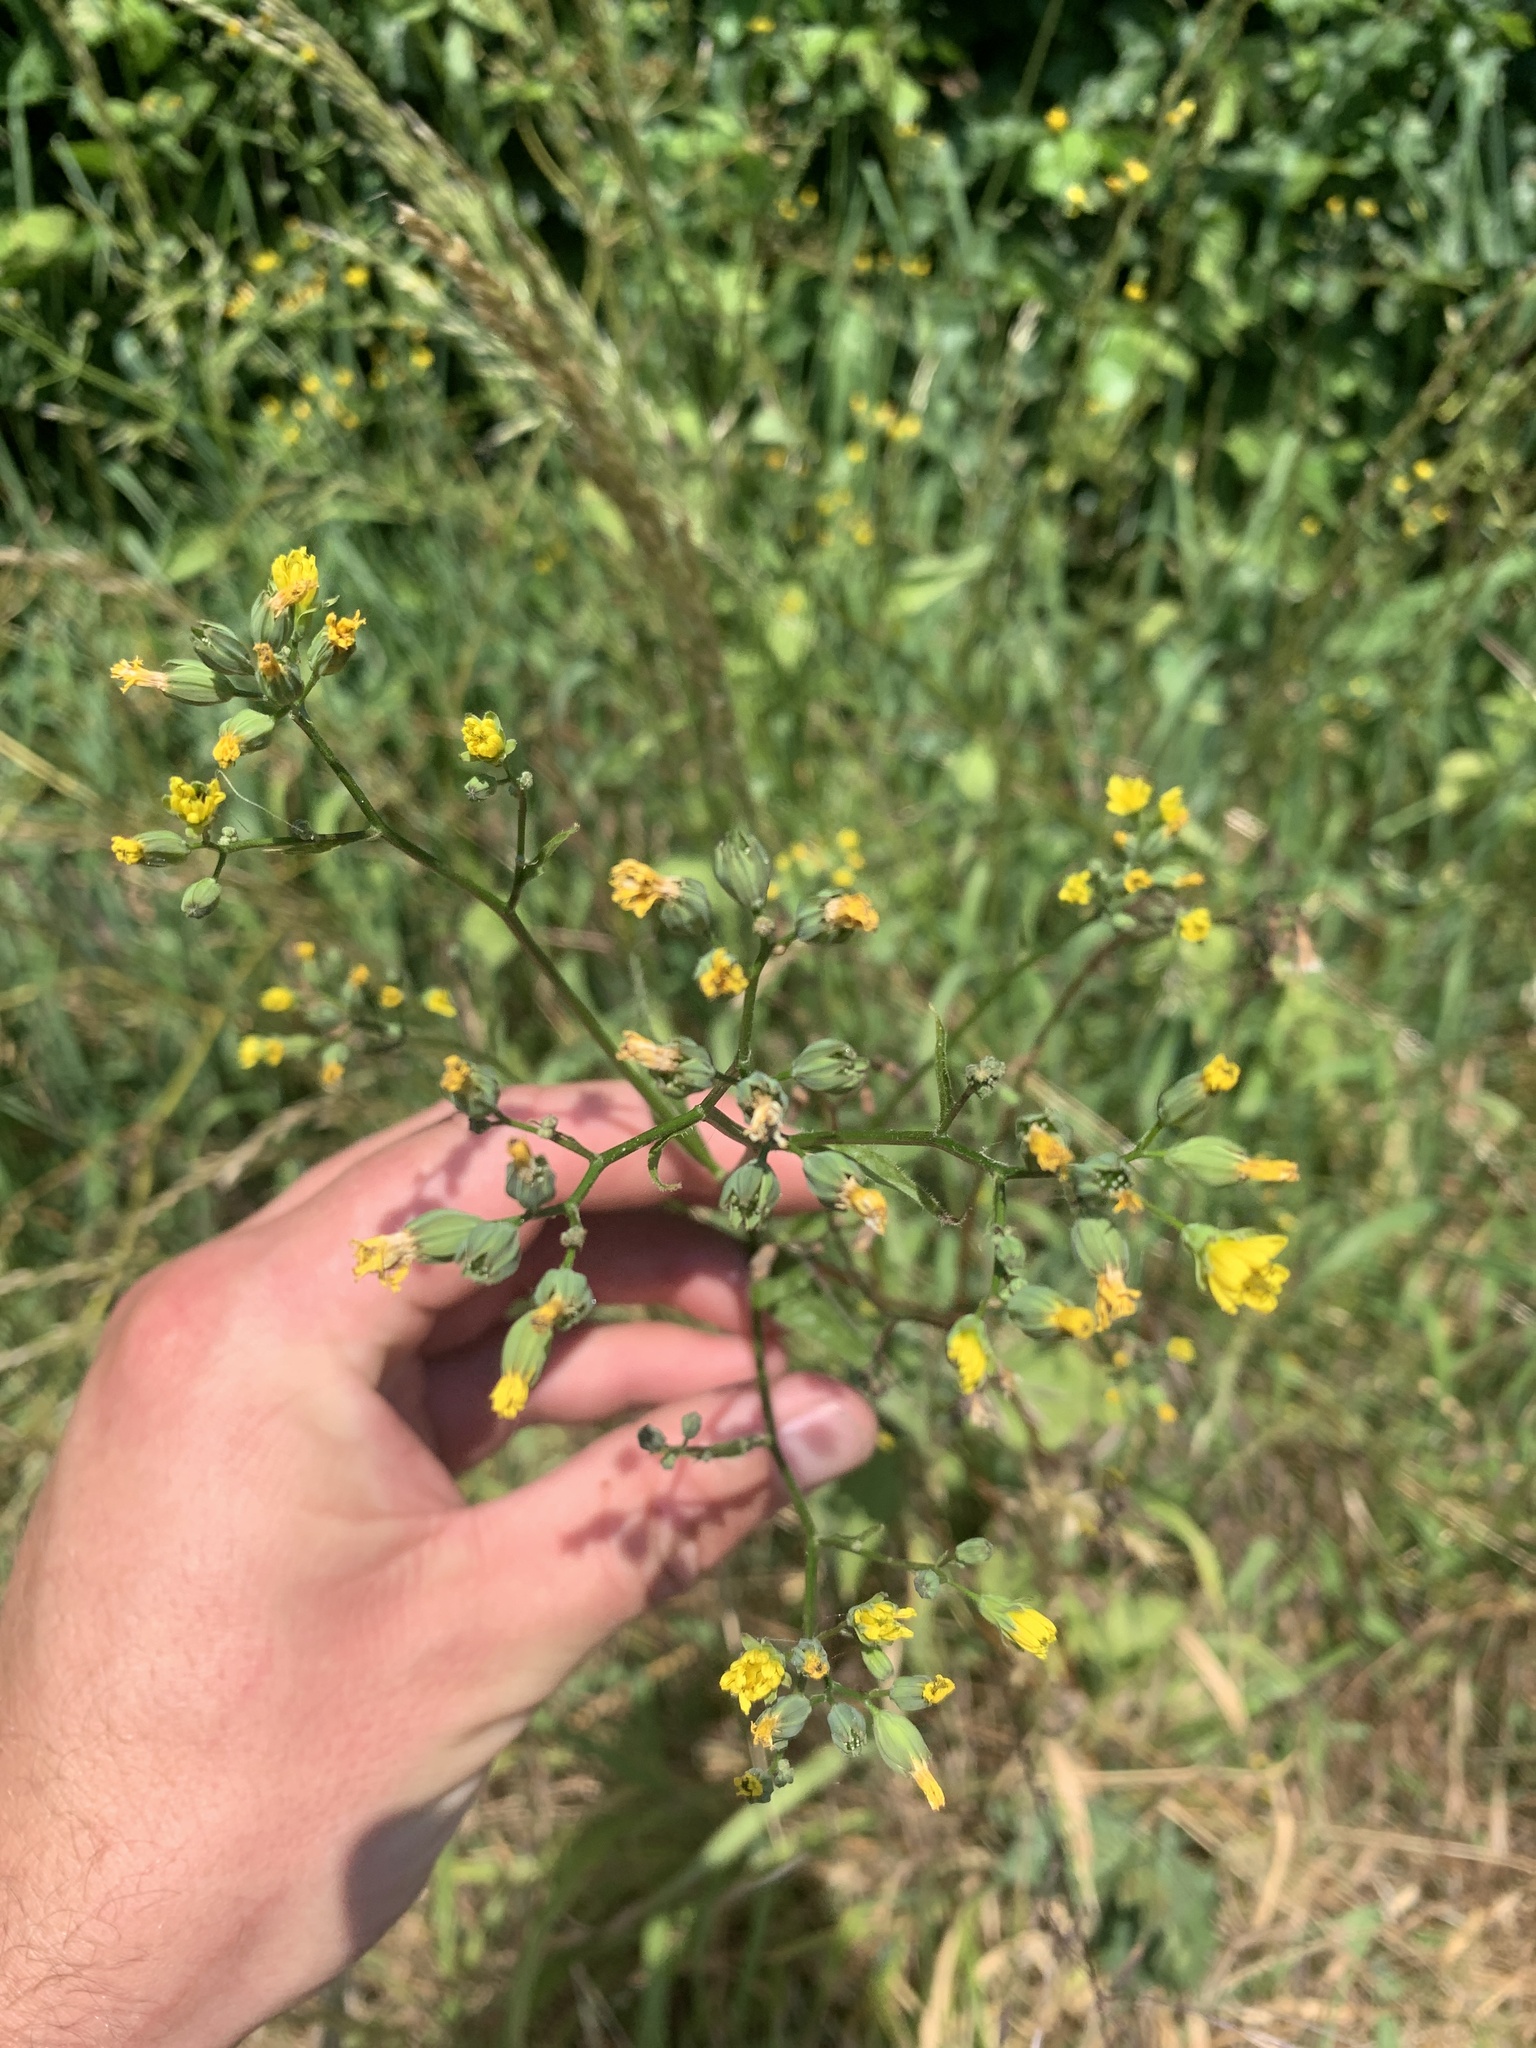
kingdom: Plantae
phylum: Tracheophyta
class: Magnoliopsida
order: Asterales
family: Asteraceae
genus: Senecio
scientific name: Senecio vulgaris
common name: Old-man-in-the-spring
